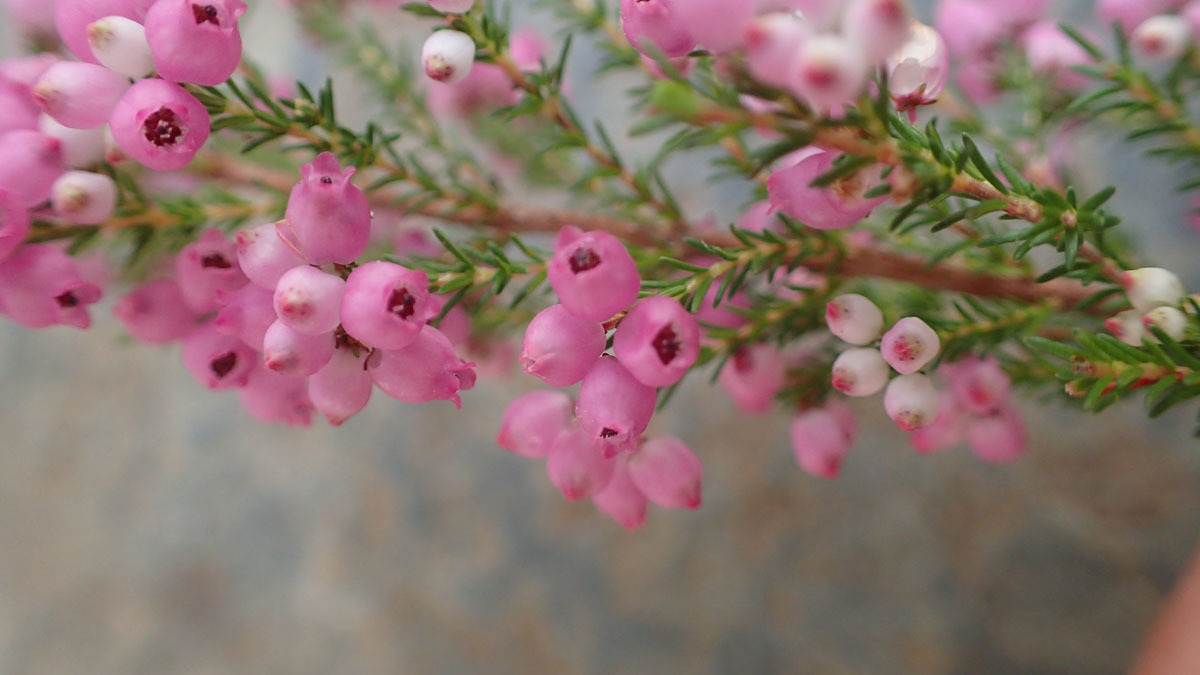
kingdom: Plantae
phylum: Tracheophyta
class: Magnoliopsida
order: Ericales
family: Ericaceae
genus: Erica
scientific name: Erica gracilis
